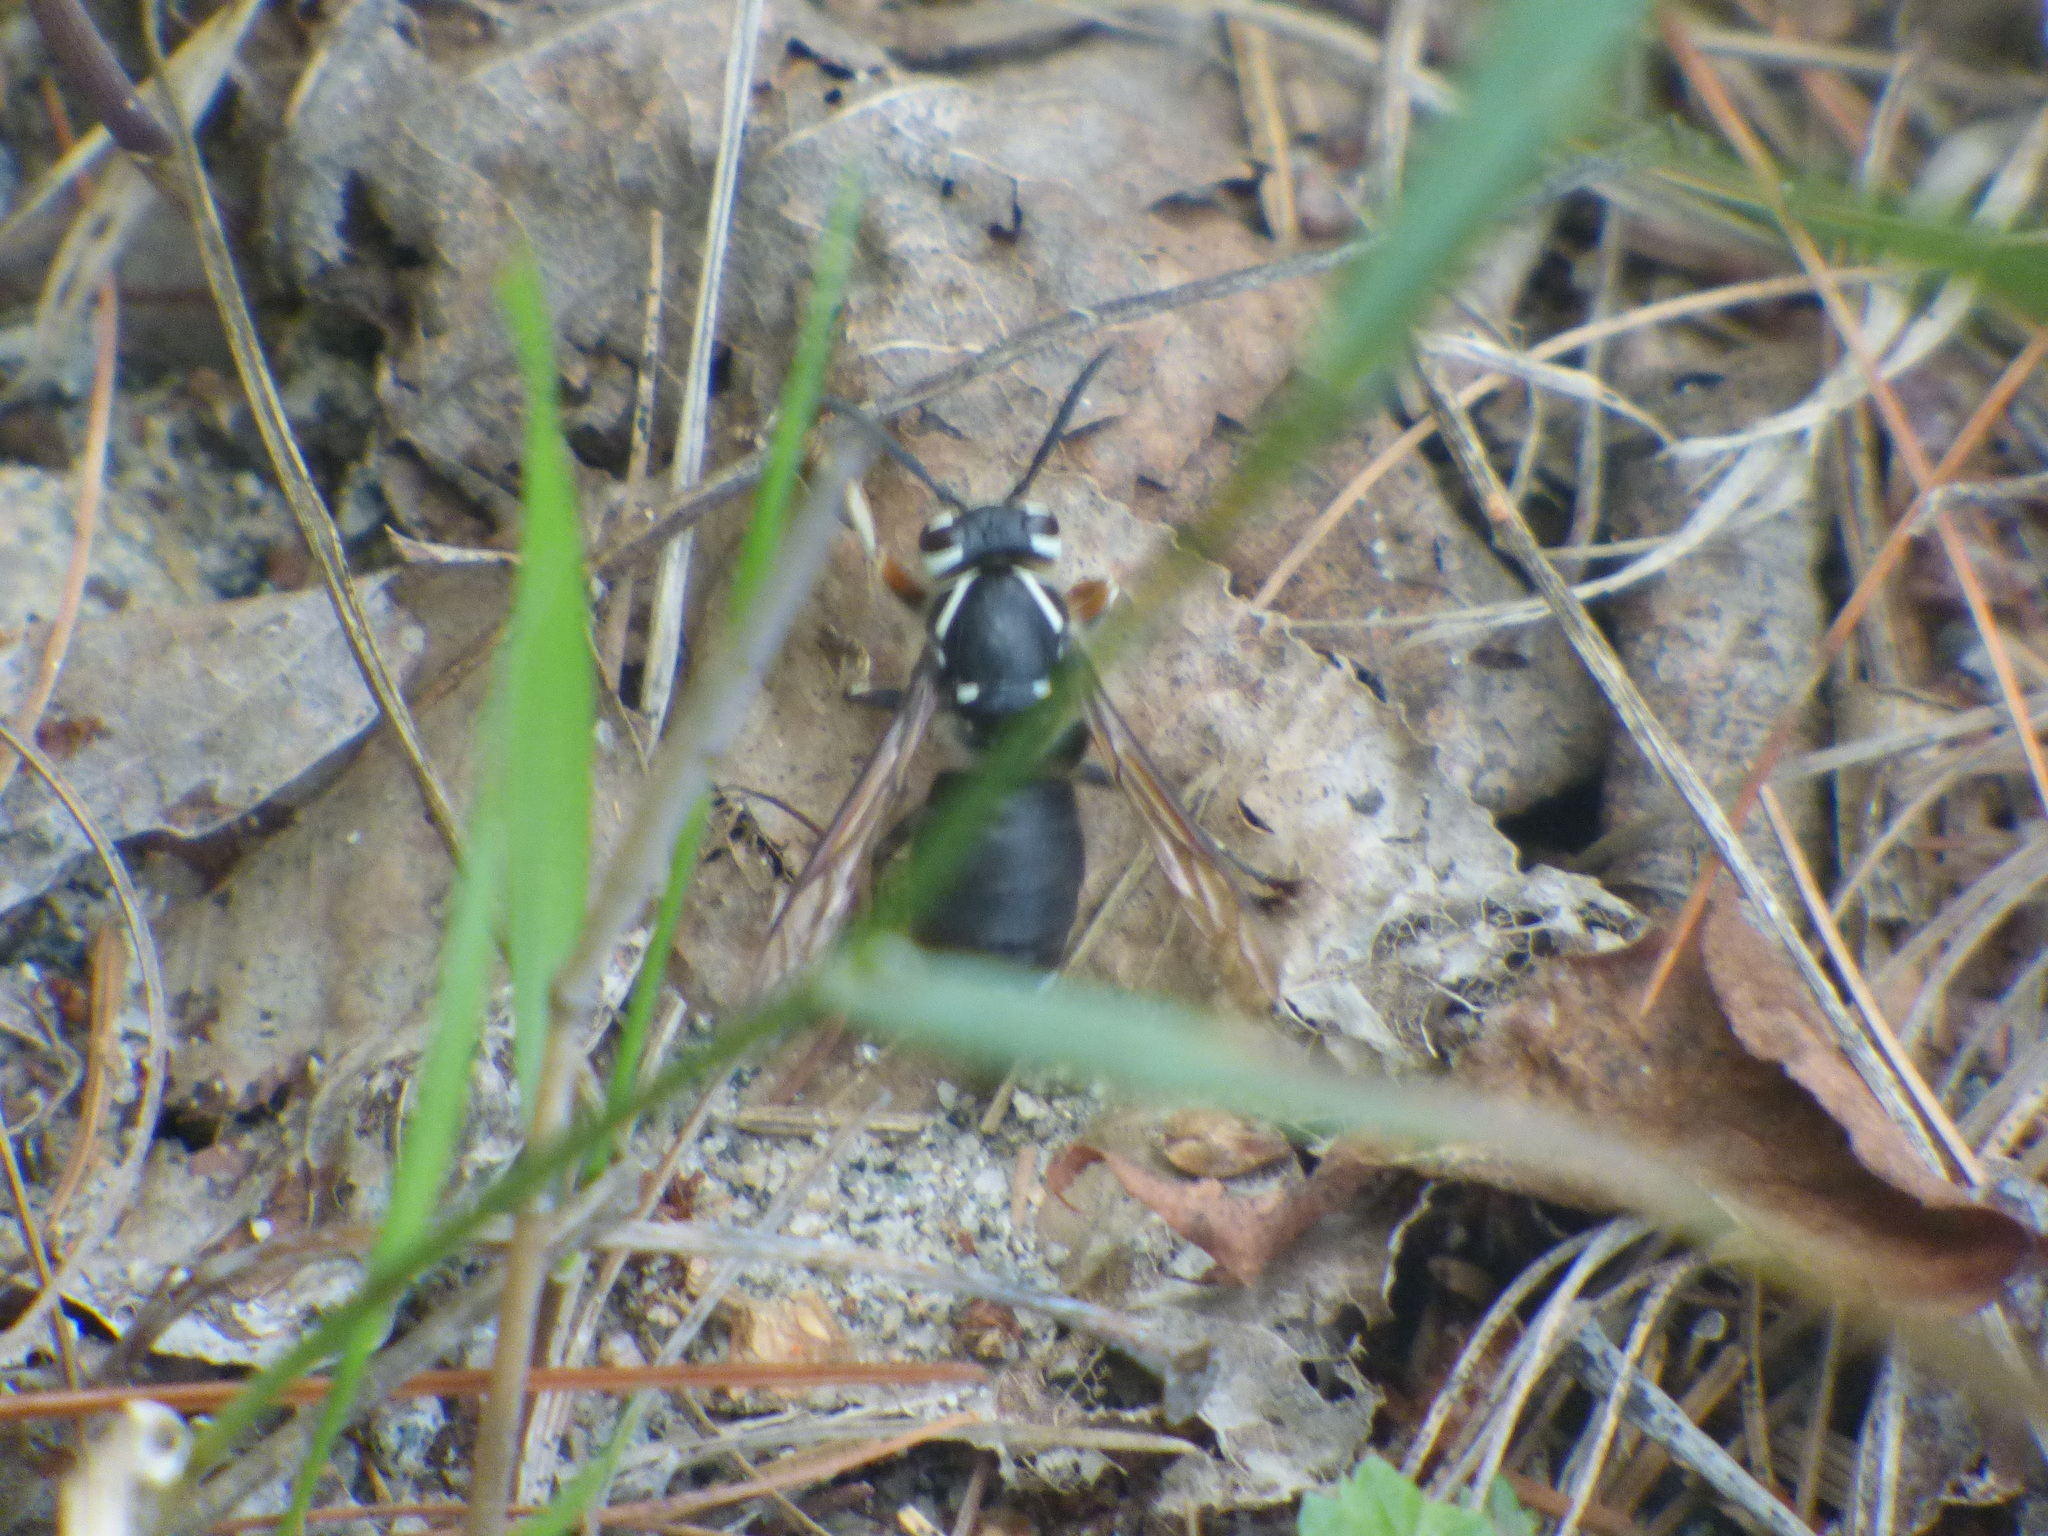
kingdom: Animalia
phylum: Arthropoda
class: Insecta
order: Hymenoptera
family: Vespidae
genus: Dolichovespula
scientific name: Dolichovespula maculata
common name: Bald-faced hornet
